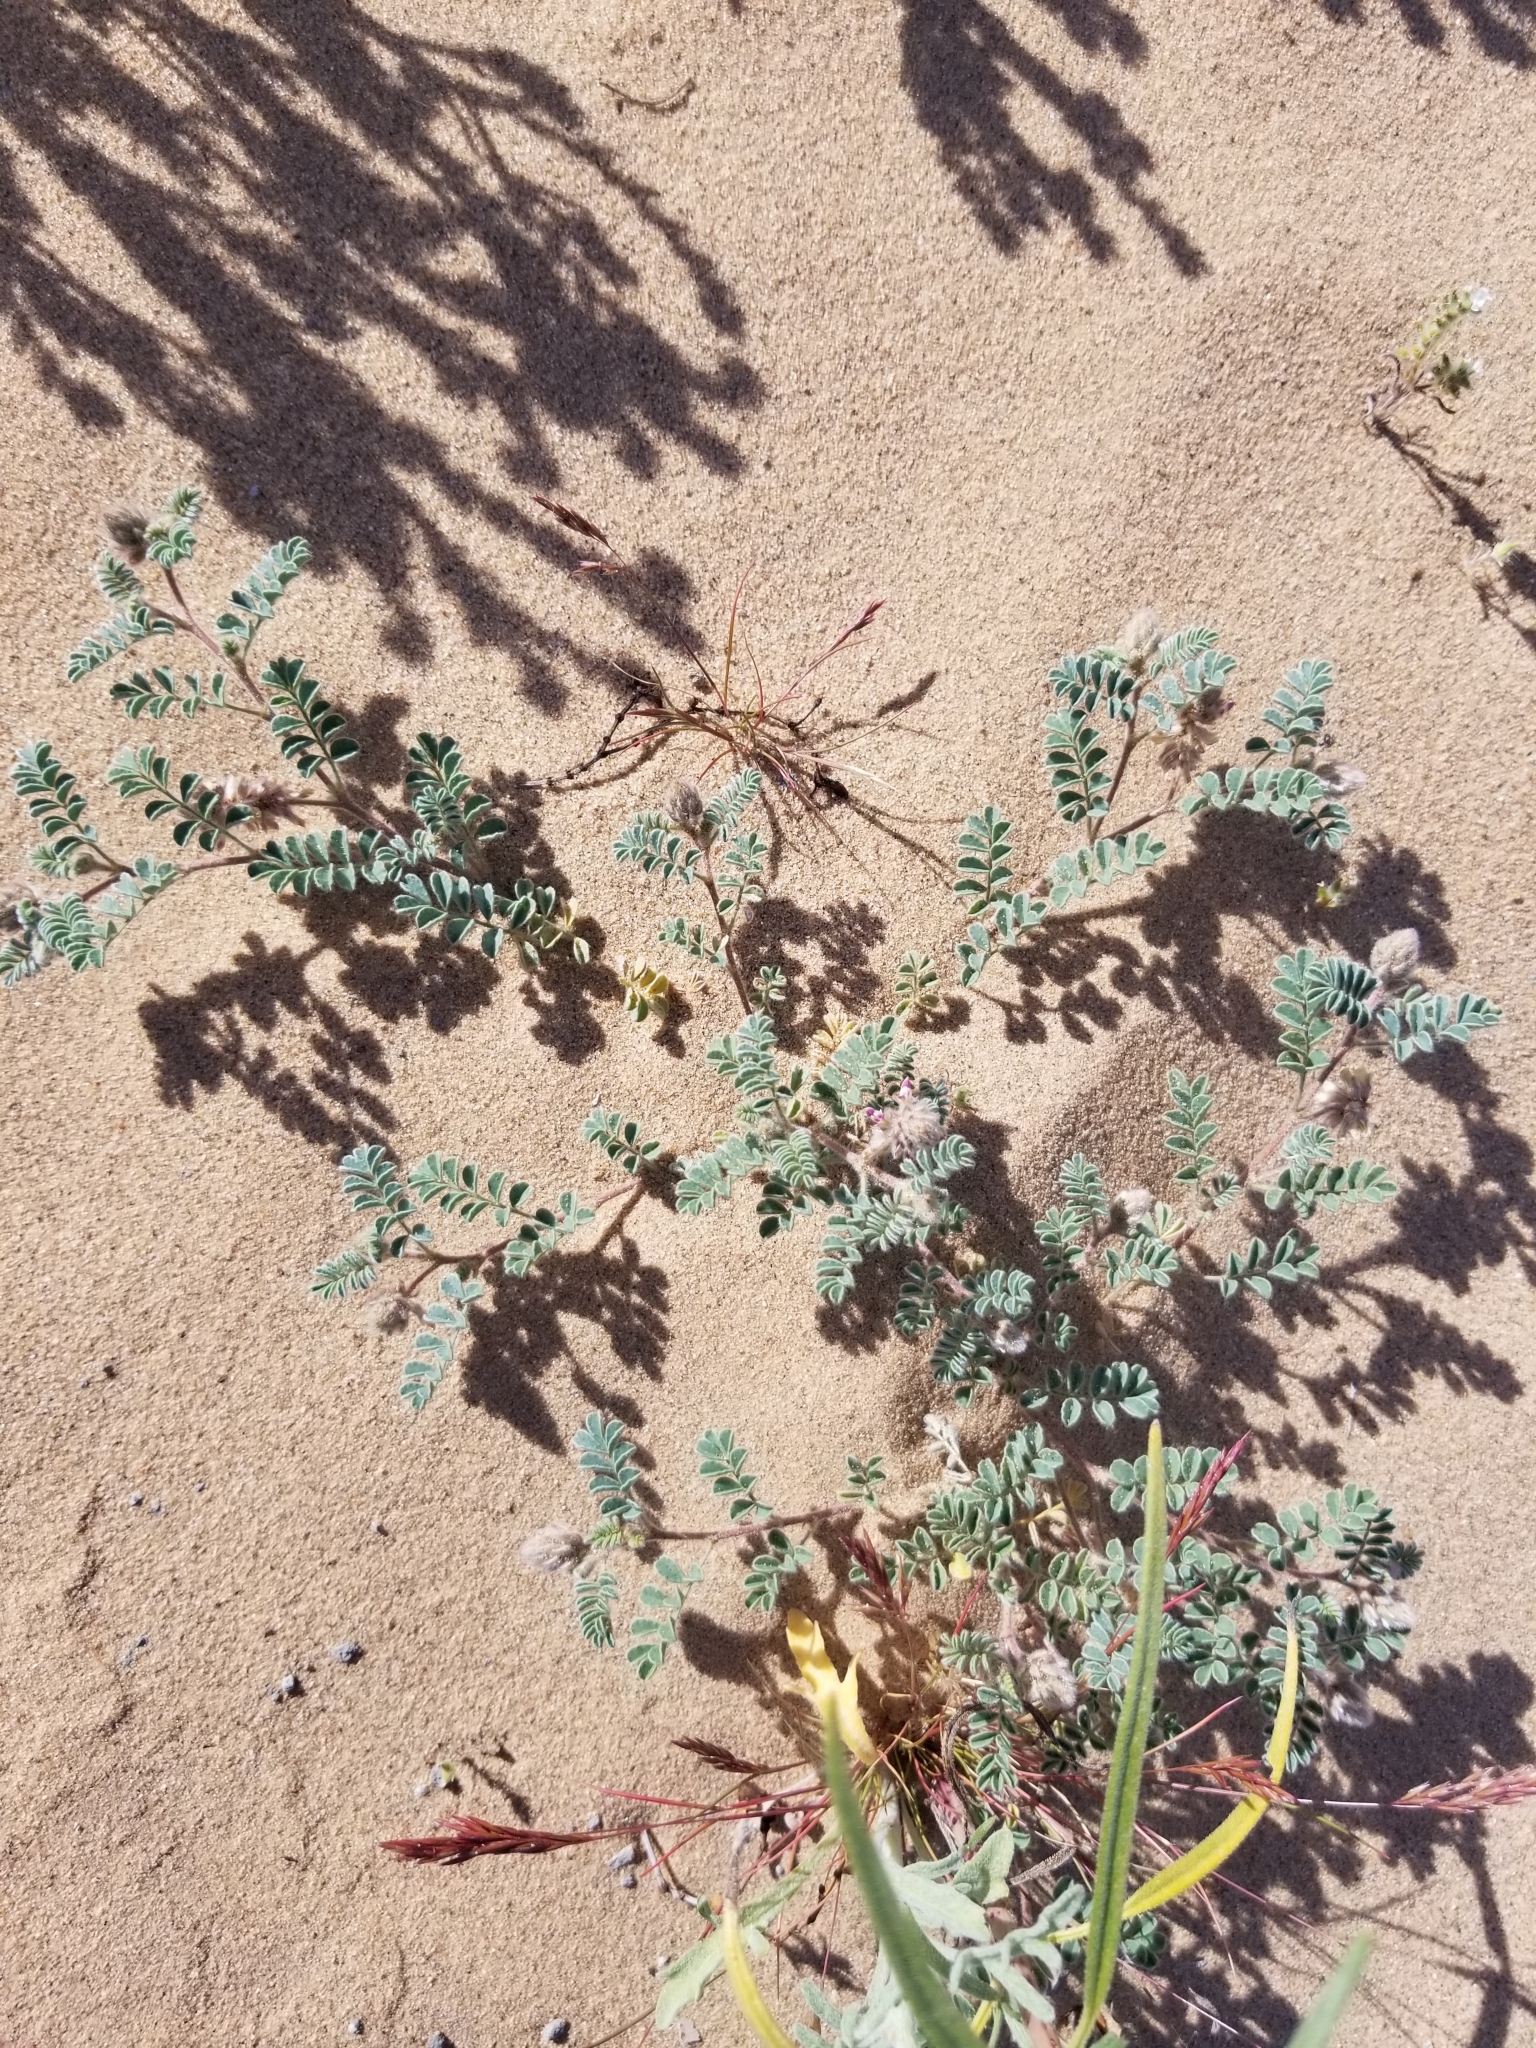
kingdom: Plantae
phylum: Tracheophyta
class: Magnoliopsida
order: Fabales
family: Fabaceae
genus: Dalea
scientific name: Dalea mollissima
